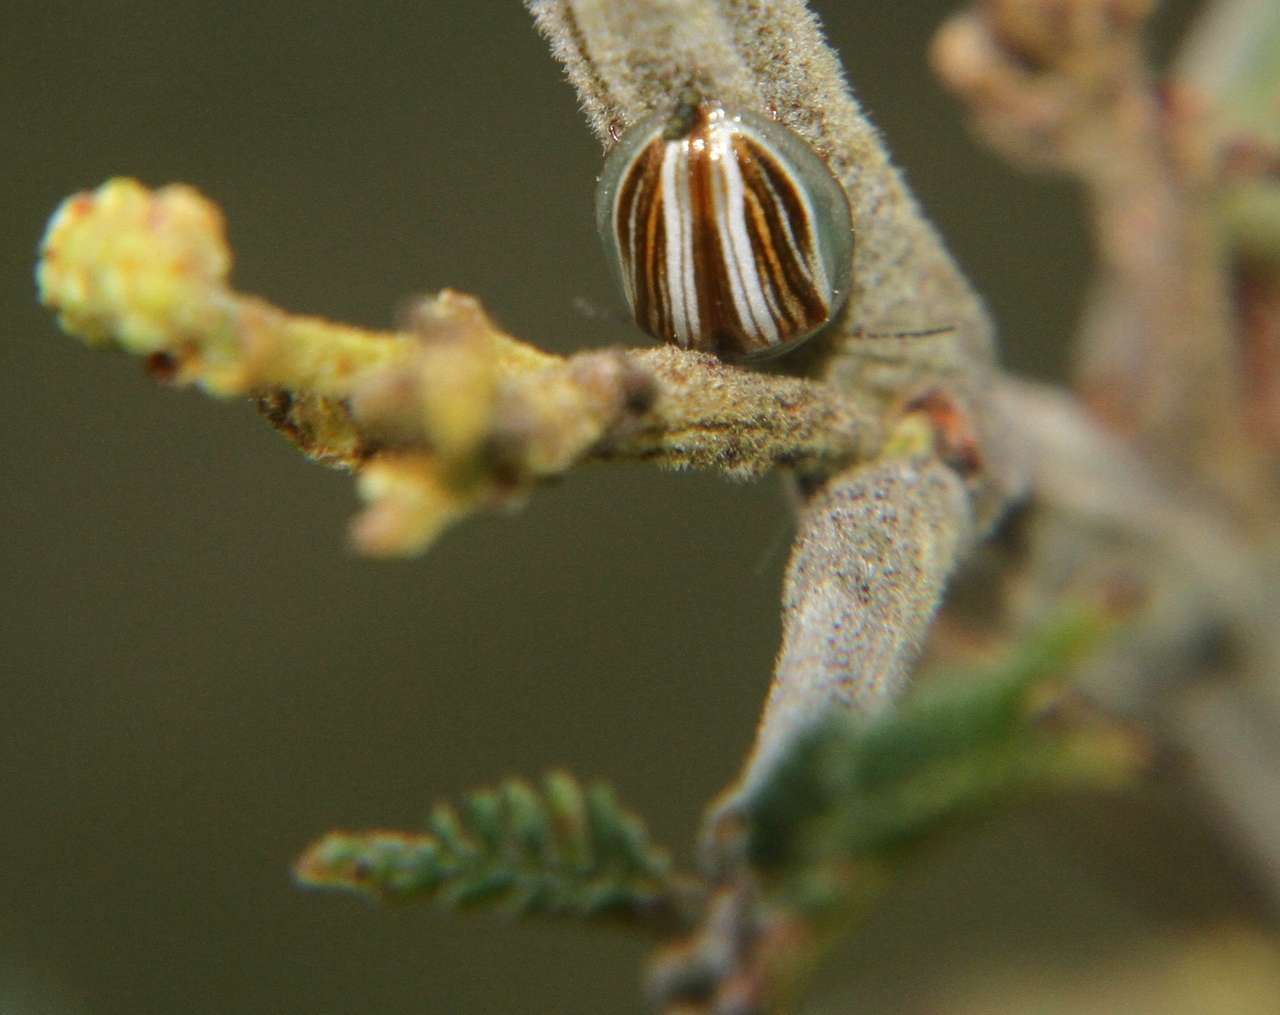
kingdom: Animalia
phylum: Arthropoda
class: Insecta
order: Coleoptera
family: Chrysomelidae
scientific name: Chrysomelidae
